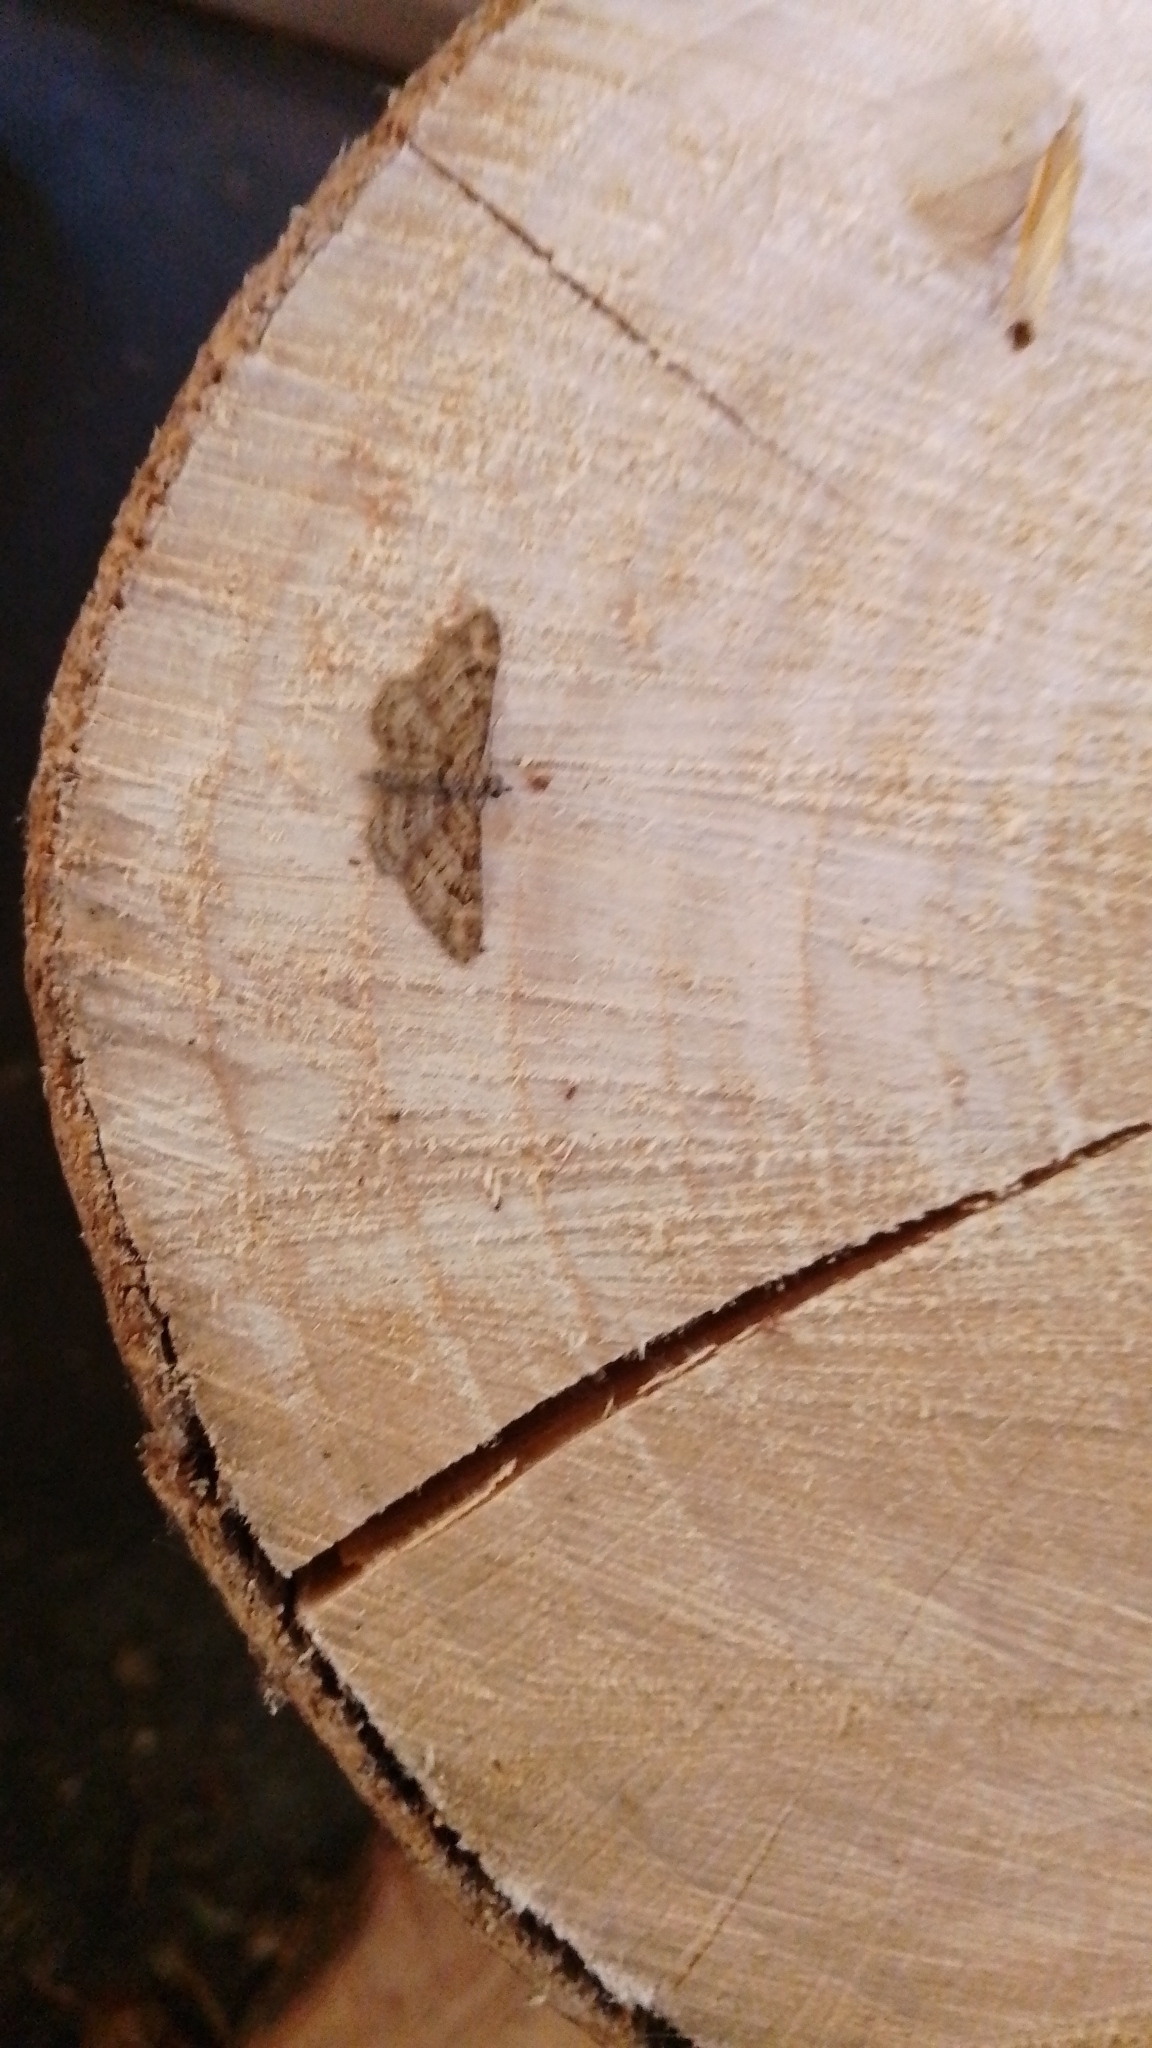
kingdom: Animalia
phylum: Arthropoda
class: Insecta
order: Lepidoptera
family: Geometridae
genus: Gymnoscelis
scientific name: Gymnoscelis rufifasciata
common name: Double-striped pug
